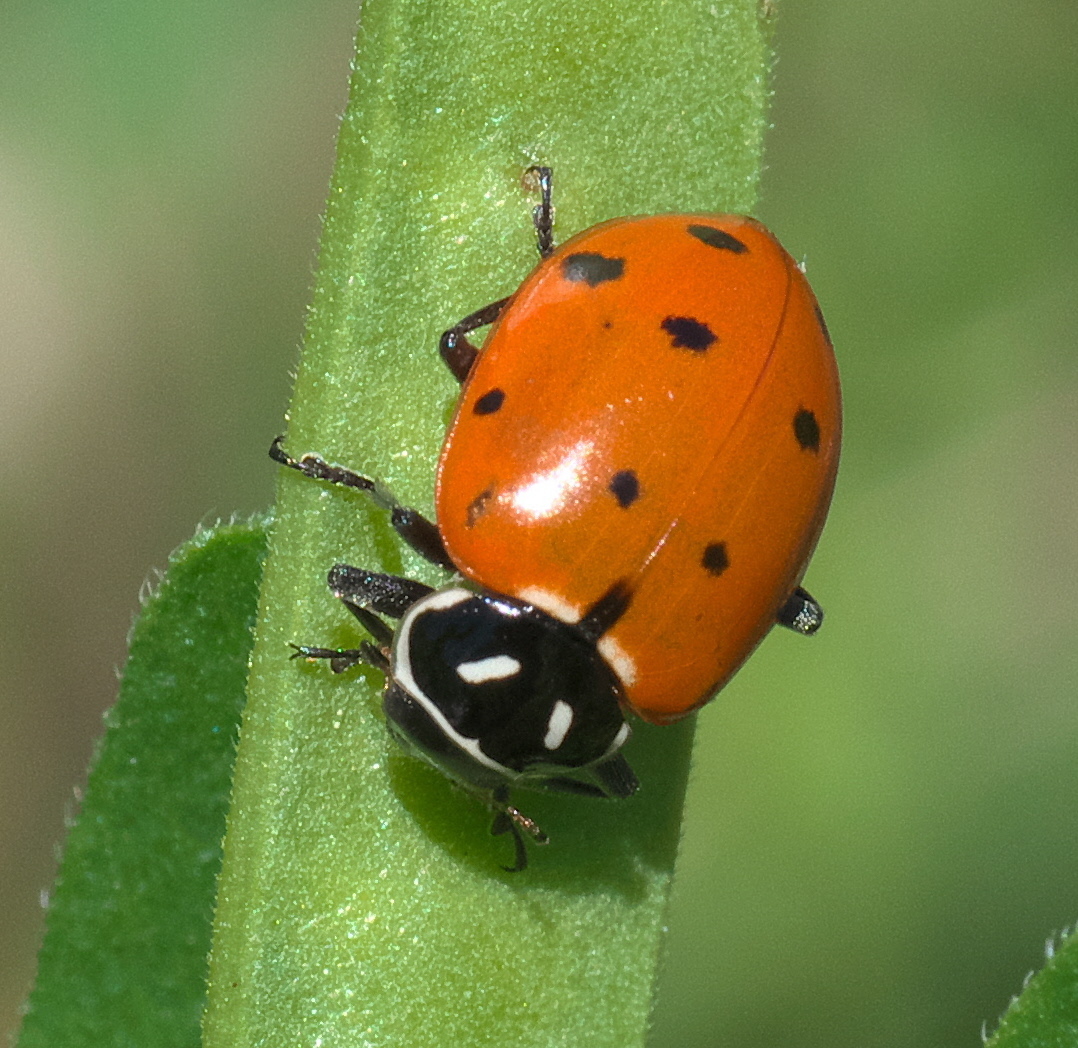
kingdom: Animalia
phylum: Arthropoda
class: Insecta
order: Coleoptera
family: Coccinellidae
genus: Hippodamia
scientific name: Hippodamia convergens
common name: Convergent lady beetle
